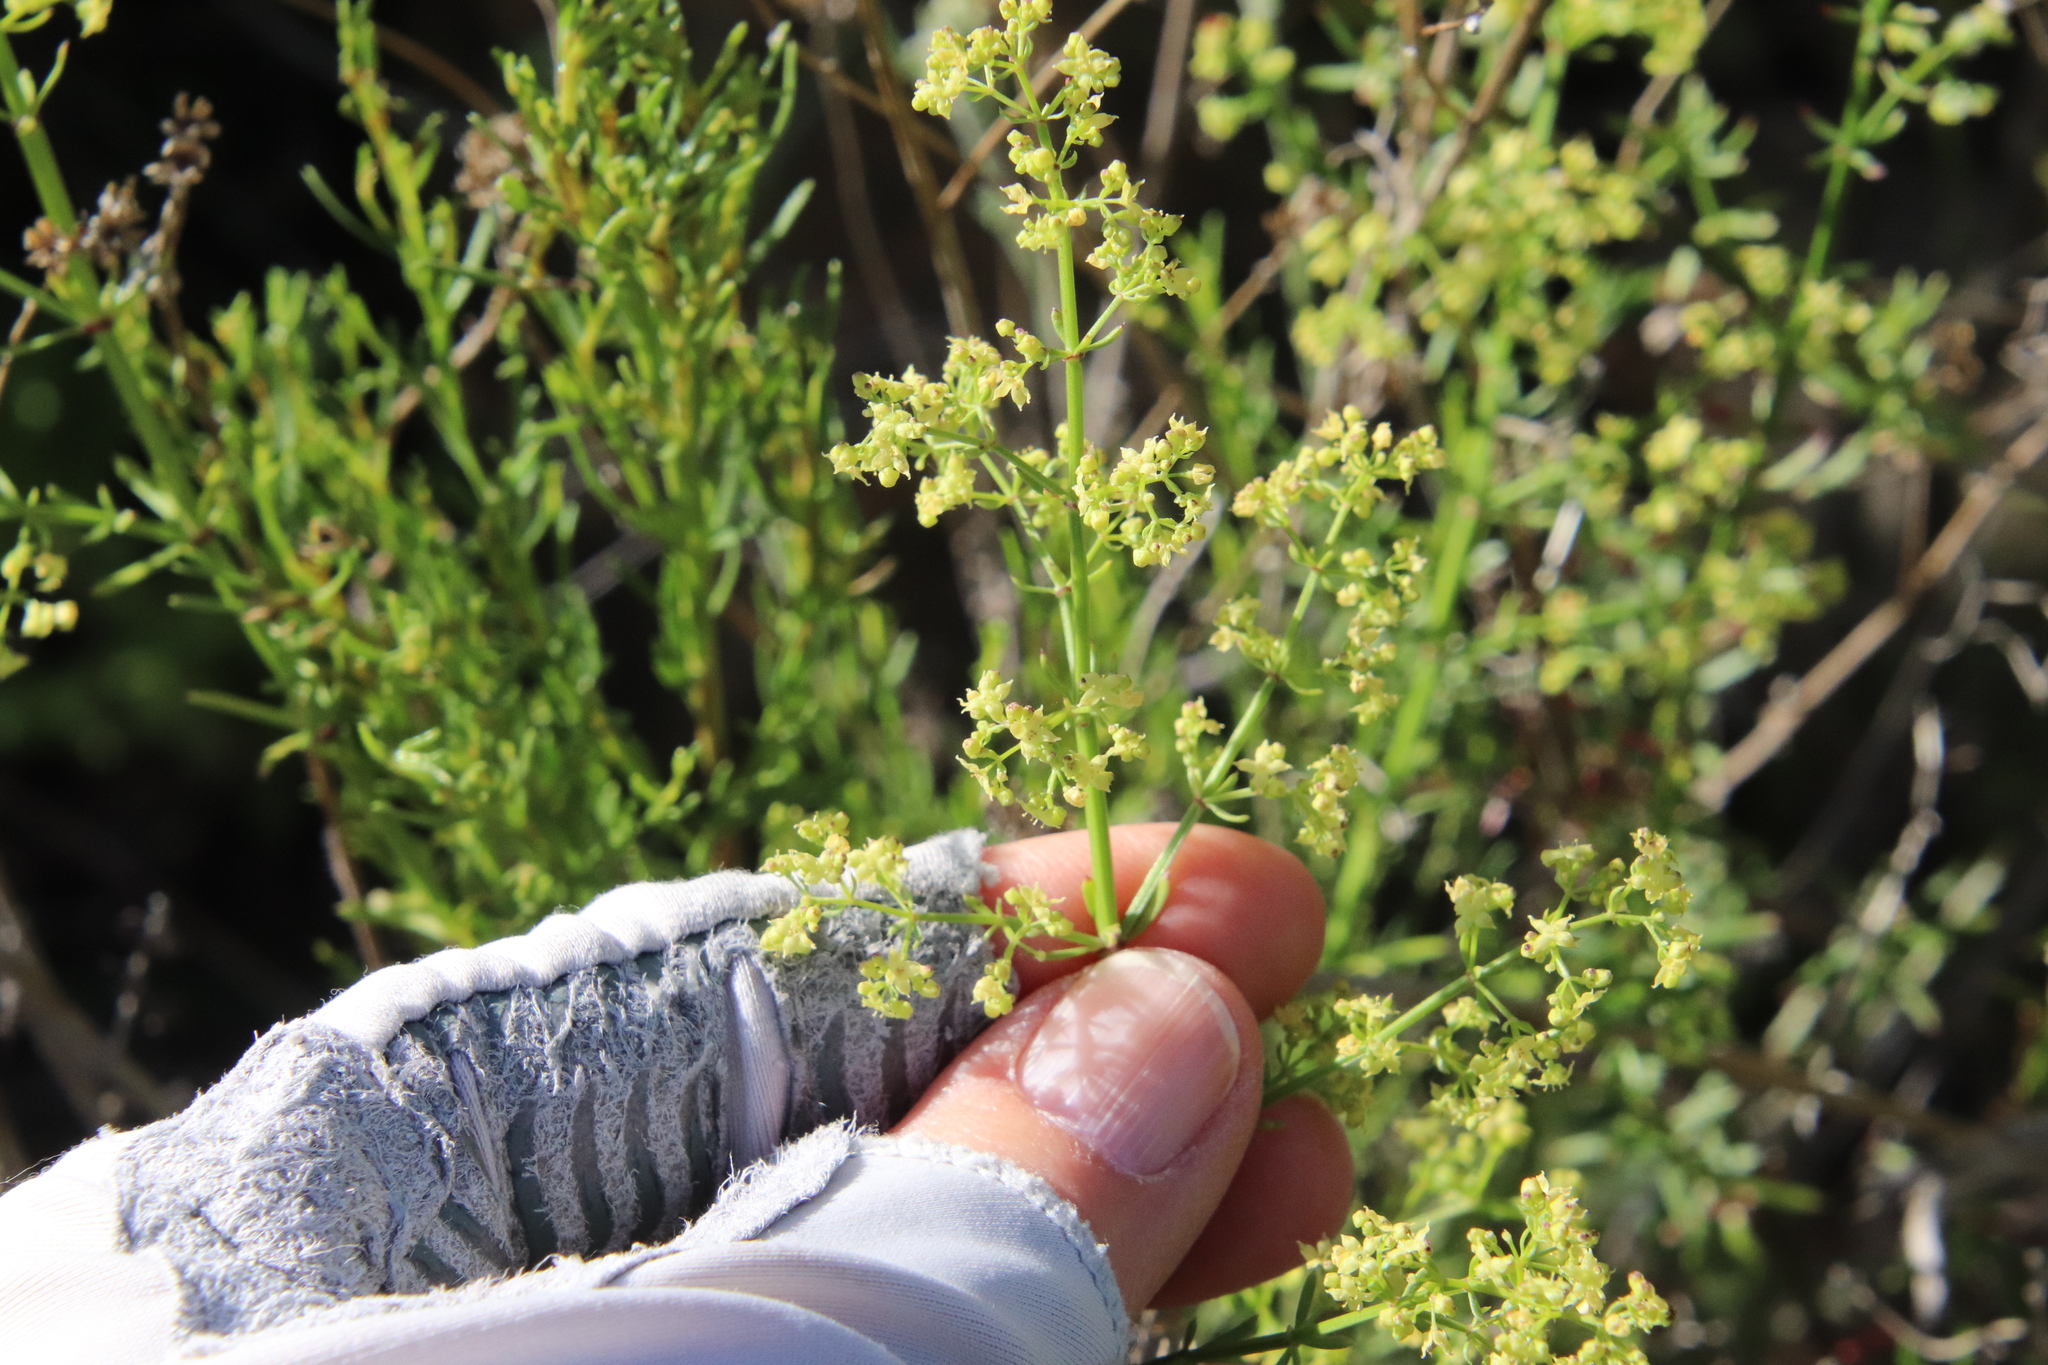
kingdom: Plantae
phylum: Tracheophyta
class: Magnoliopsida
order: Gentianales
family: Rubiaceae
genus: Galium
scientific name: Galium angustifolium
